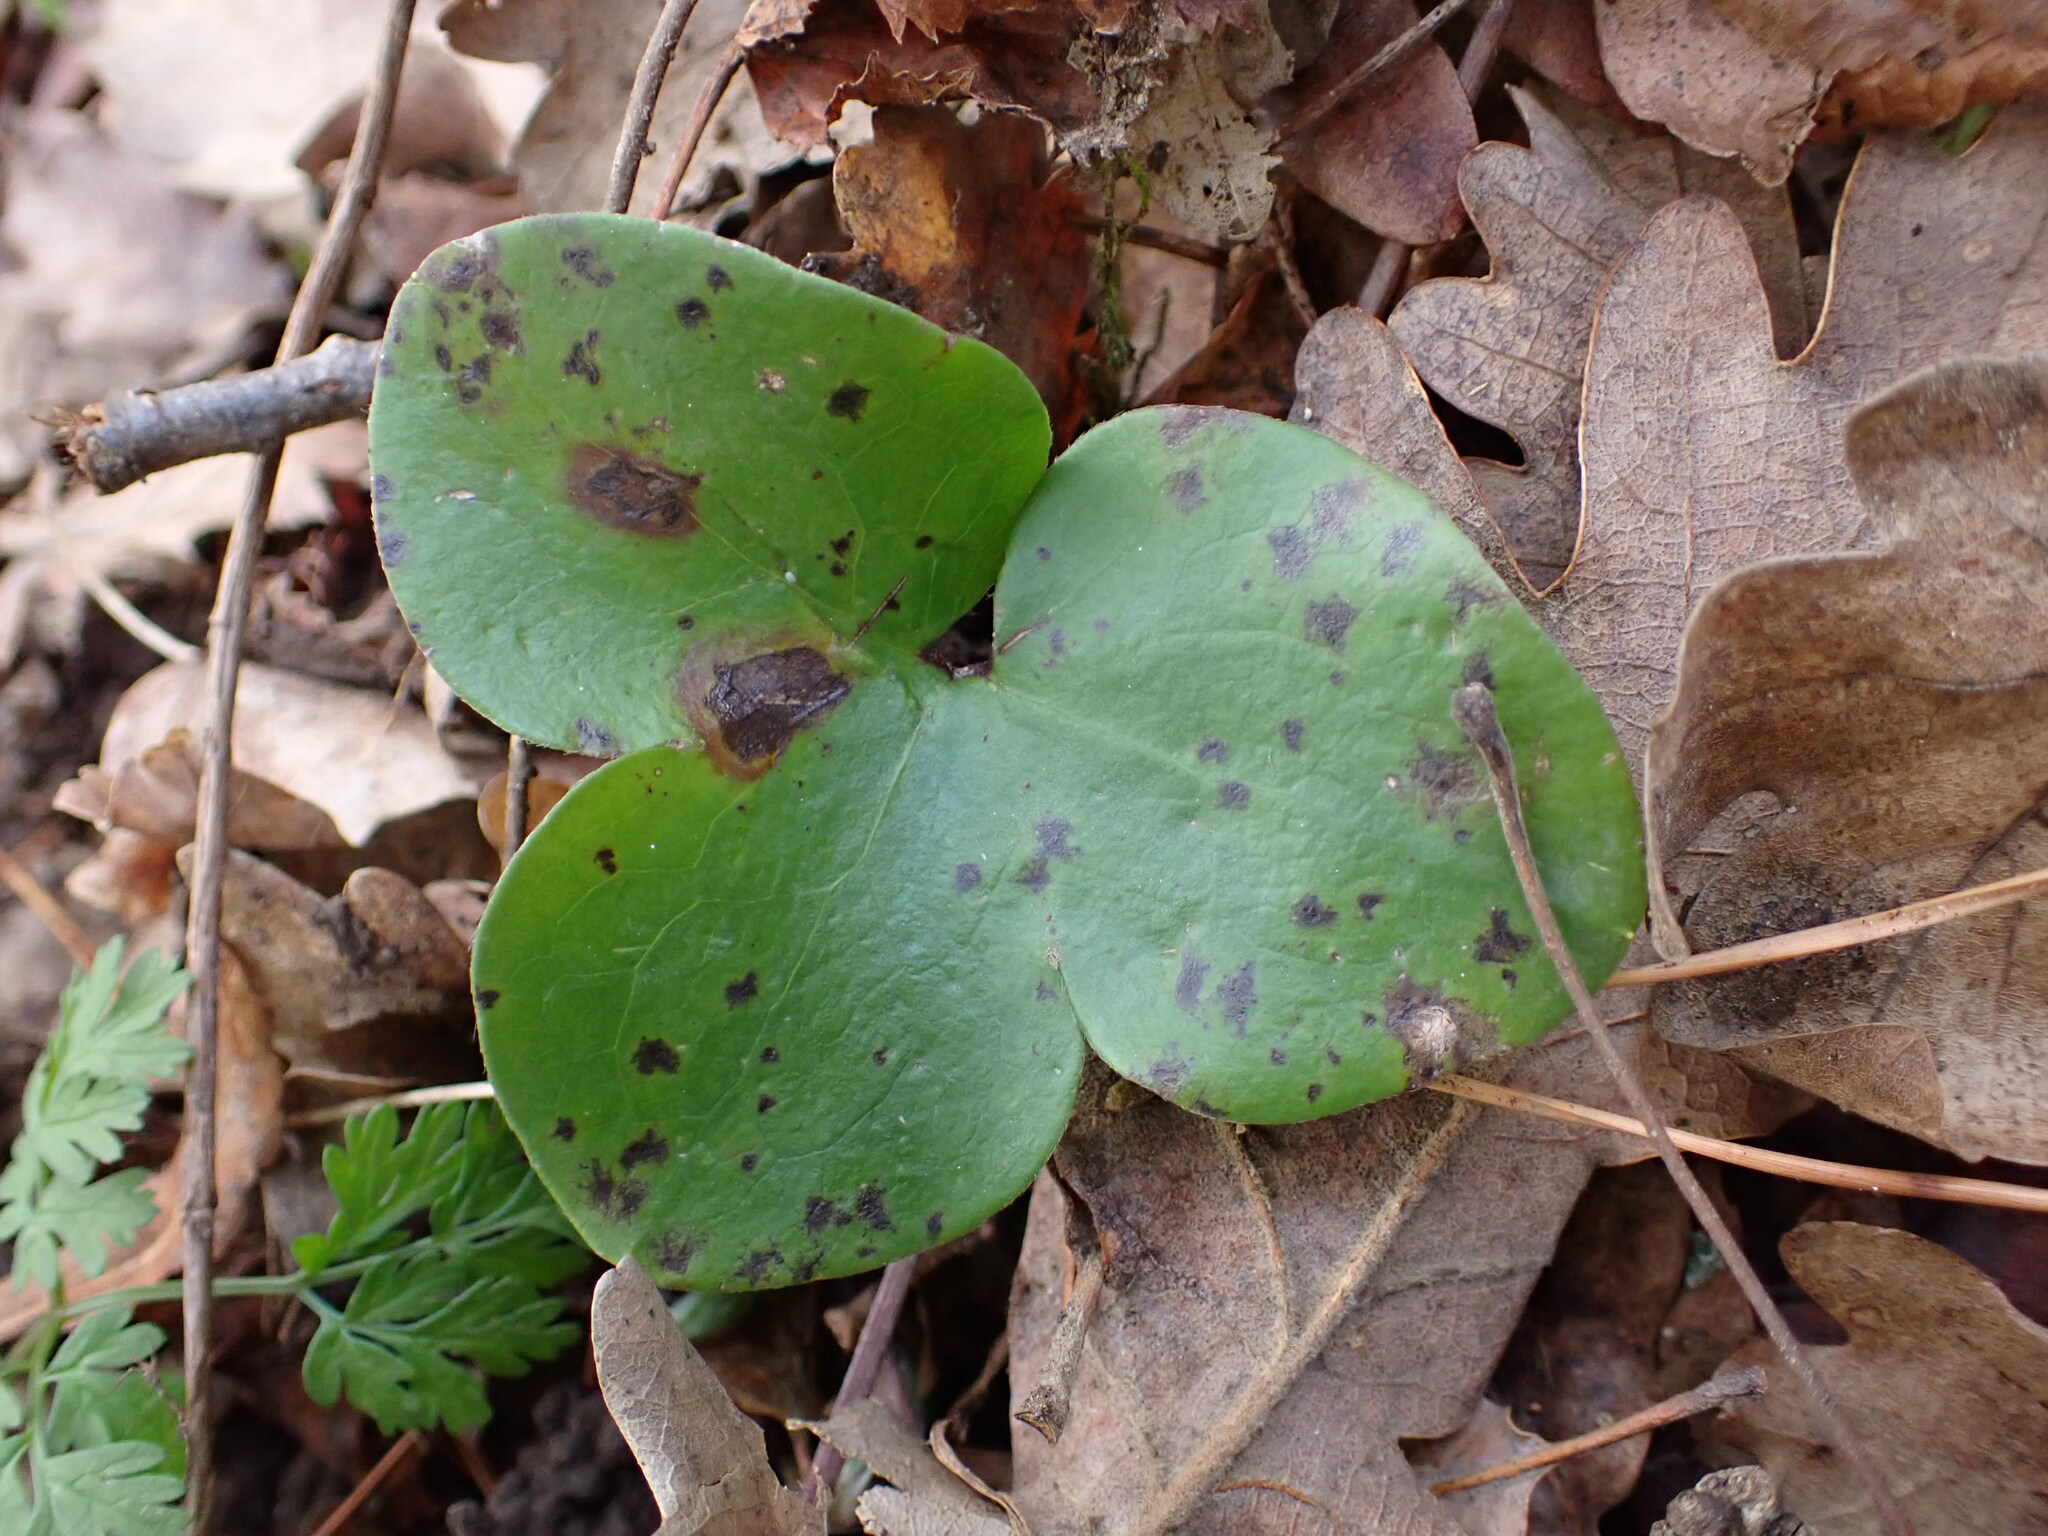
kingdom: Plantae
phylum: Tracheophyta
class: Magnoliopsida
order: Ranunculales
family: Ranunculaceae
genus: Hepatica
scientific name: Hepatica nobilis
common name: Liverleaf
